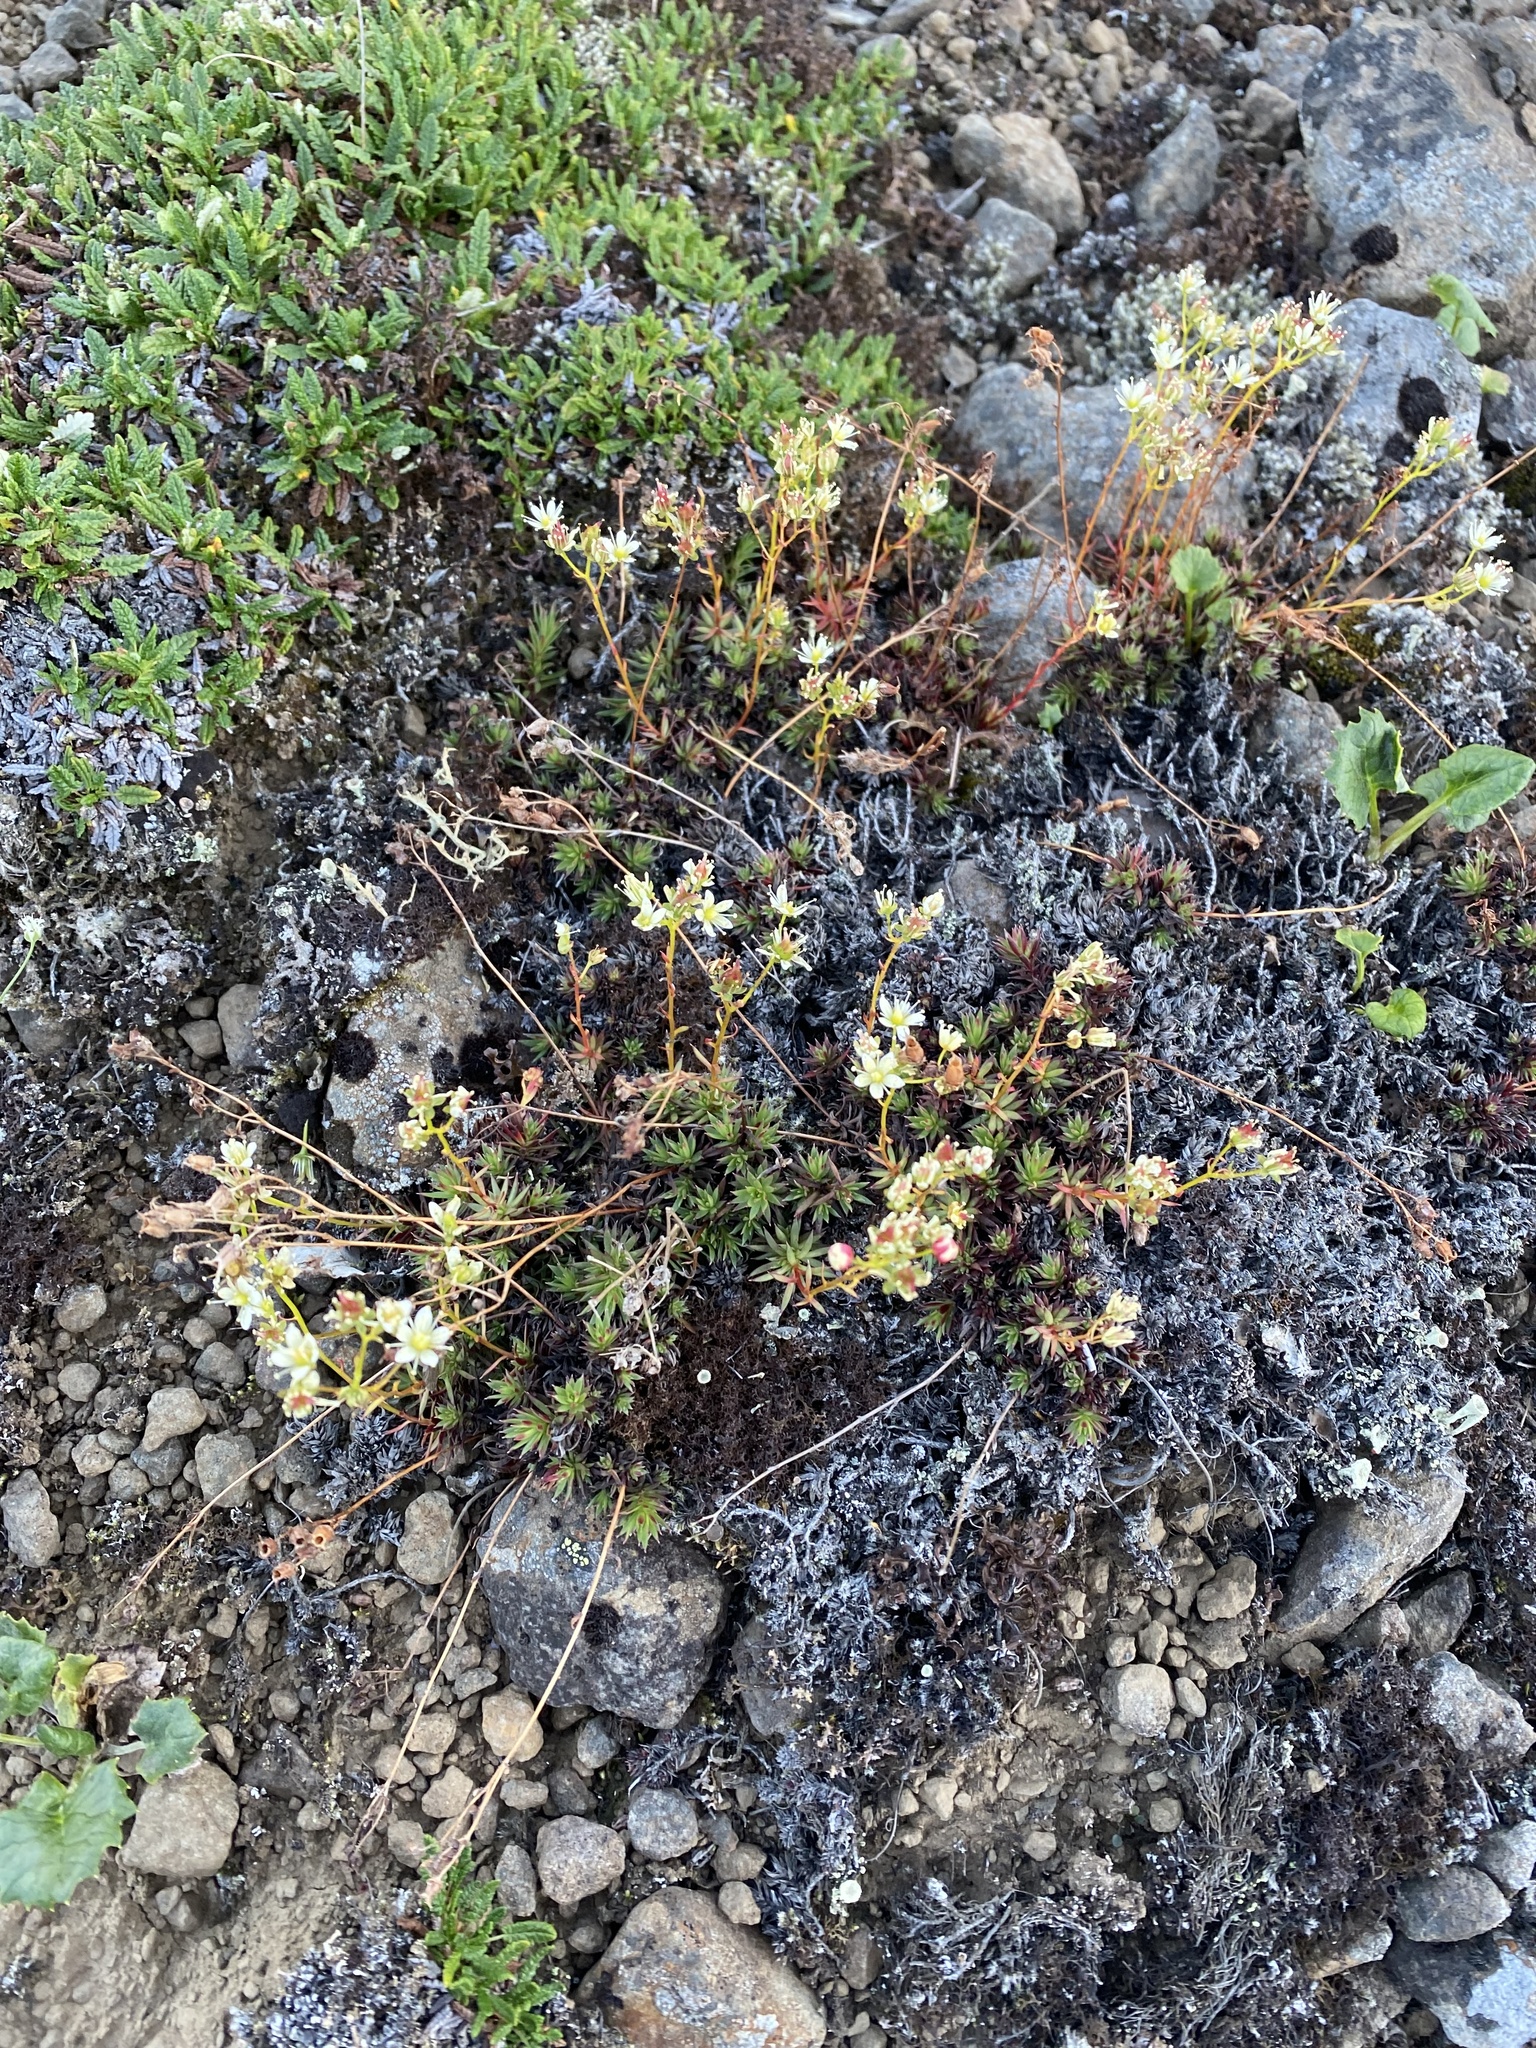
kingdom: Plantae
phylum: Tracheophyta
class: Magnoliopsida
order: Saxifragales
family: Saxifragaceae
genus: Saxifraga
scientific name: Saxifraga
